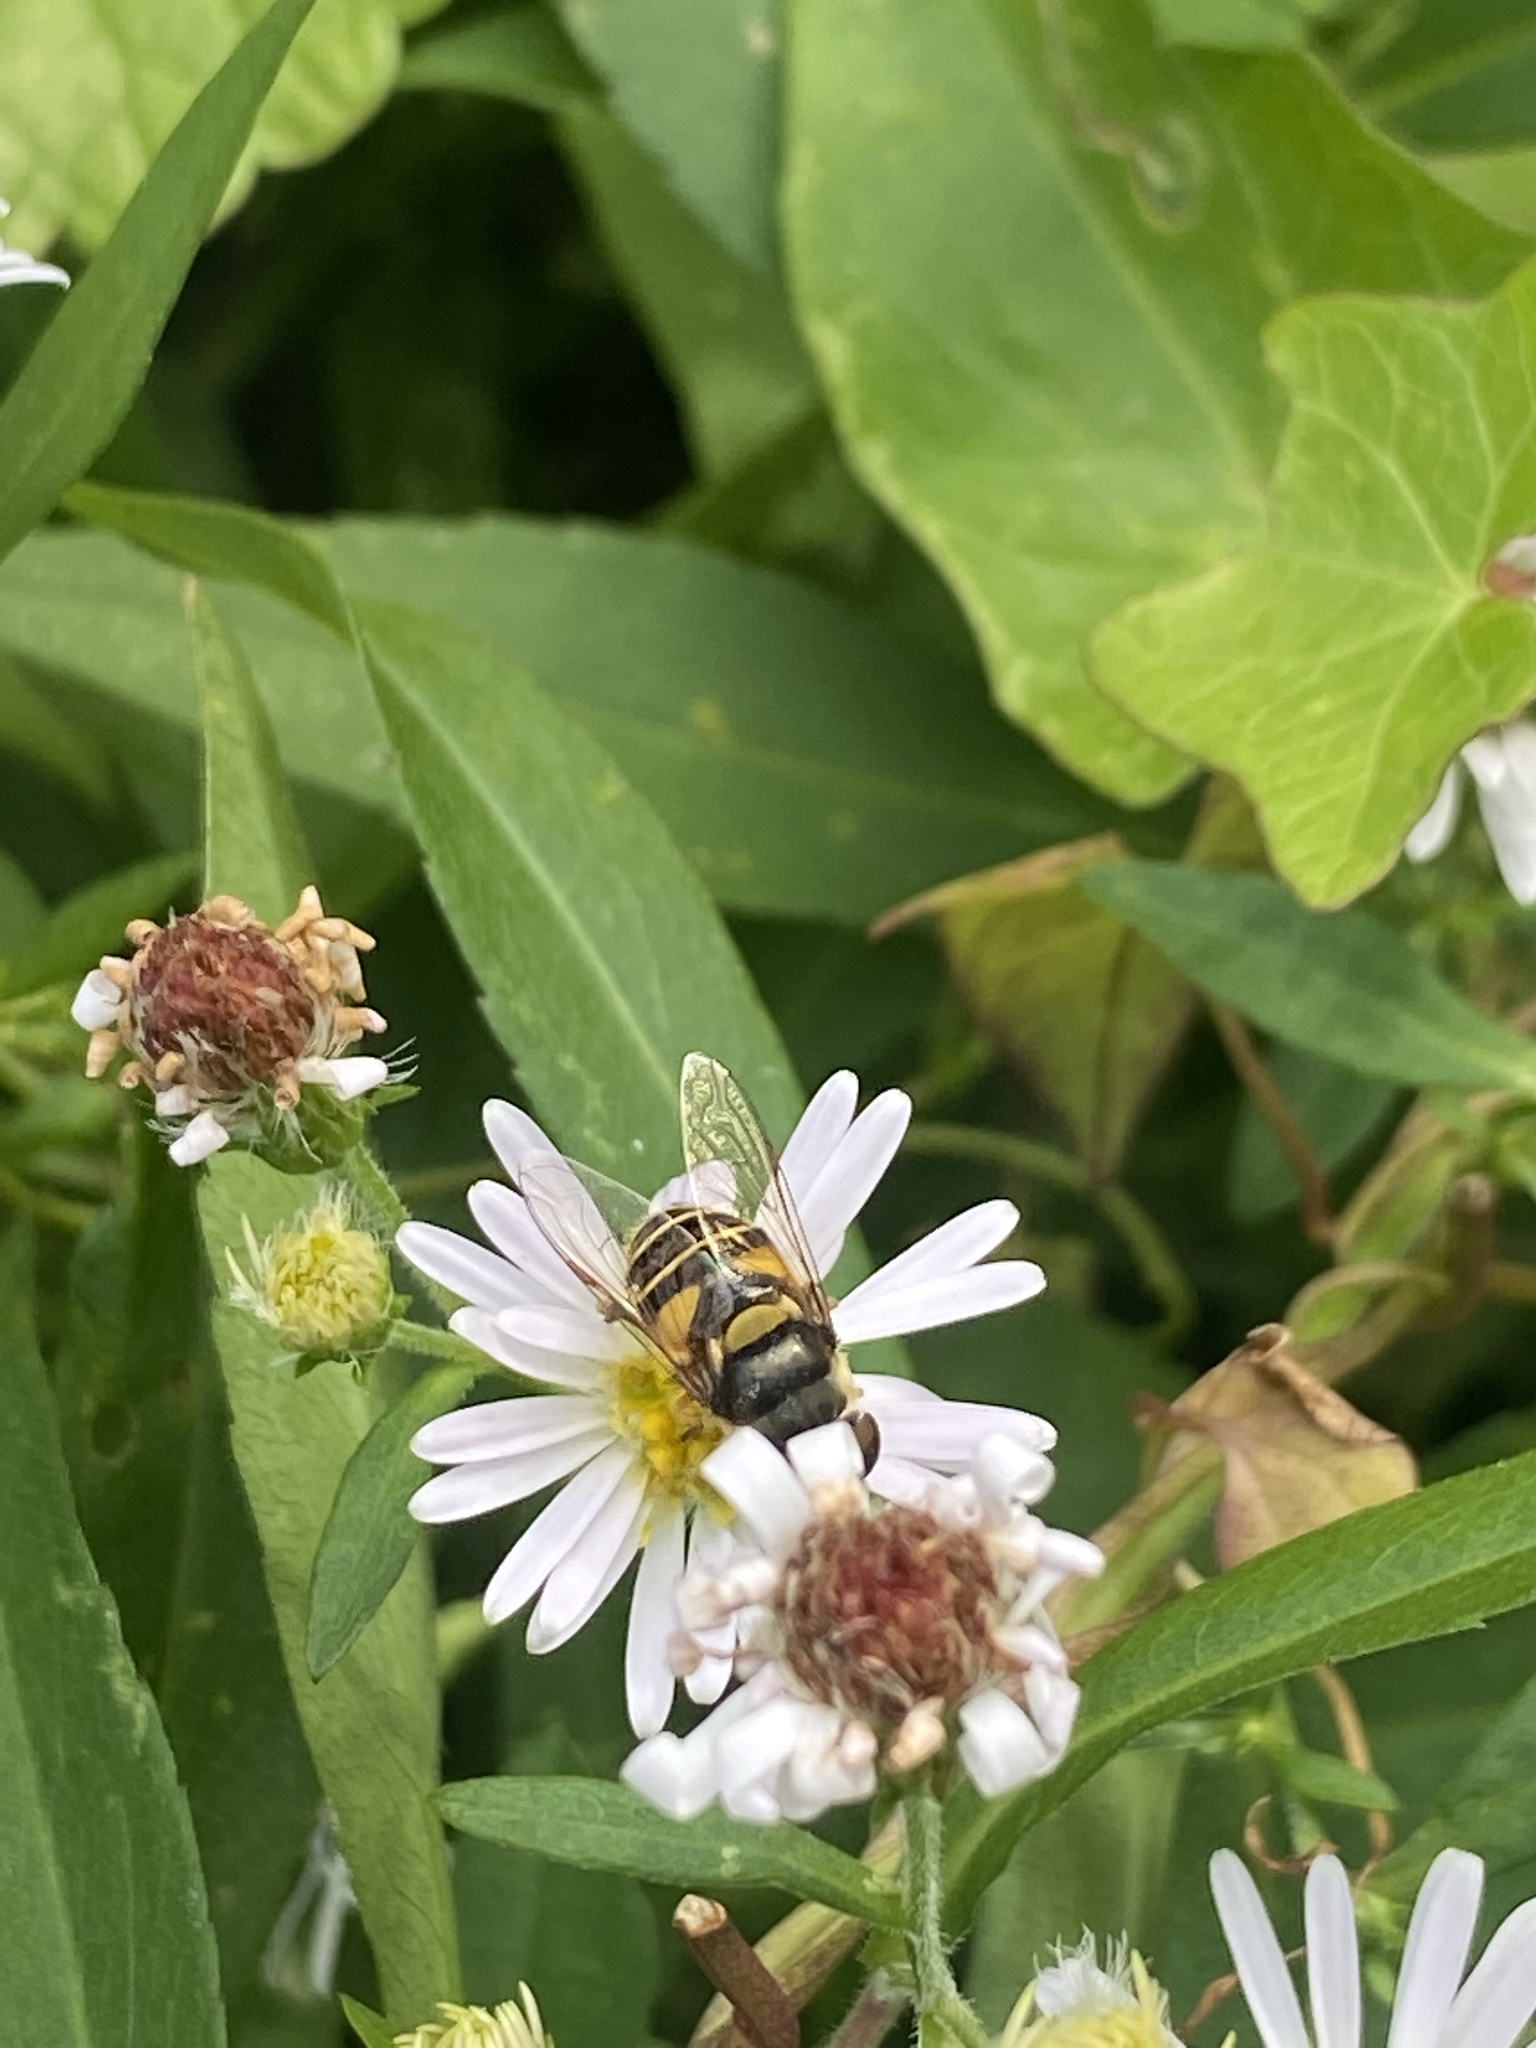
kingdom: Animalia
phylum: Arthropoda
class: Insecta
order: Diptera
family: Syrphidae
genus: Eristalis
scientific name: Eristalis transversa
